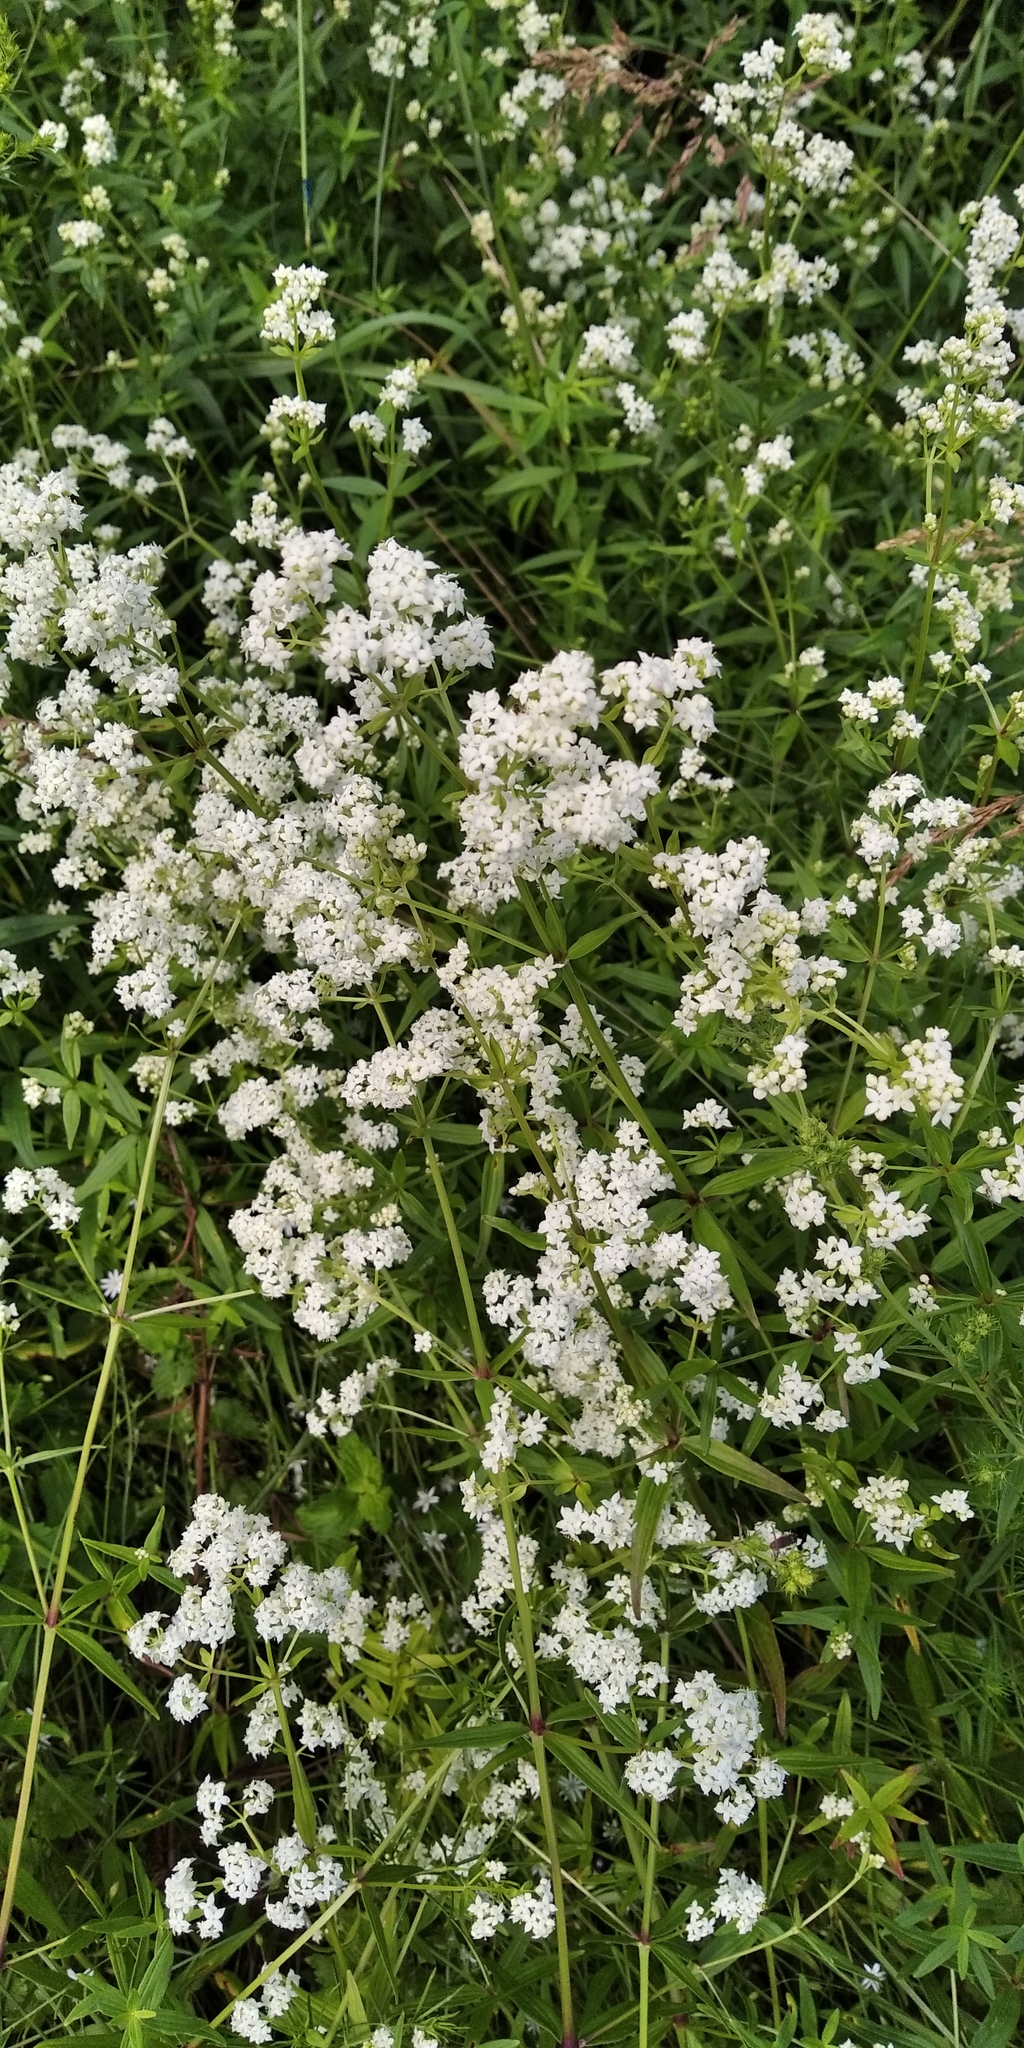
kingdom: Plantae
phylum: Tracheophyta
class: Magnoliopsida
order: Gentianales
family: Rubiaceae
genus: Galium
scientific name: Galium boreale
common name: Northern bedstraw
